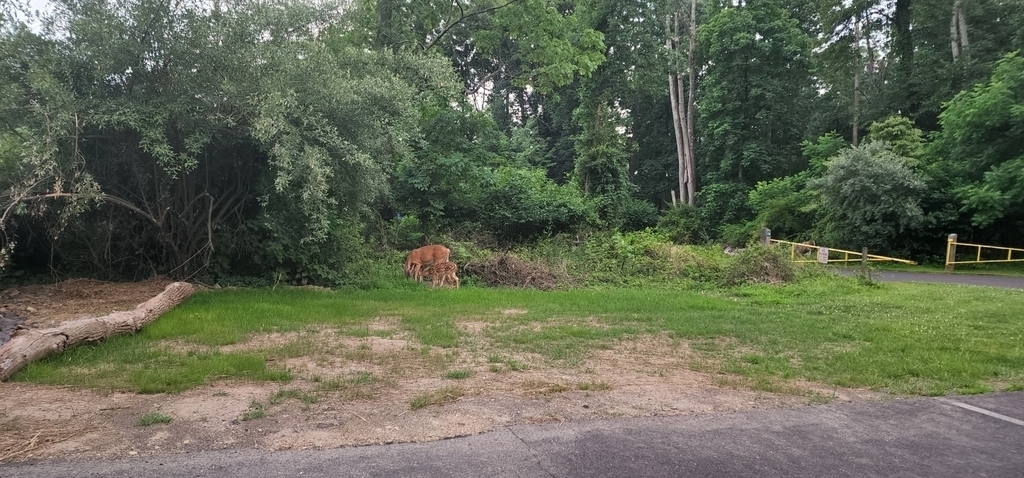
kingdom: Animalia
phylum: Chordata
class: Mammalia
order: Artiodactyla
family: Cervidae
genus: Odocoileus
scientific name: Odocoileus virginianus
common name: White-tailed deer
